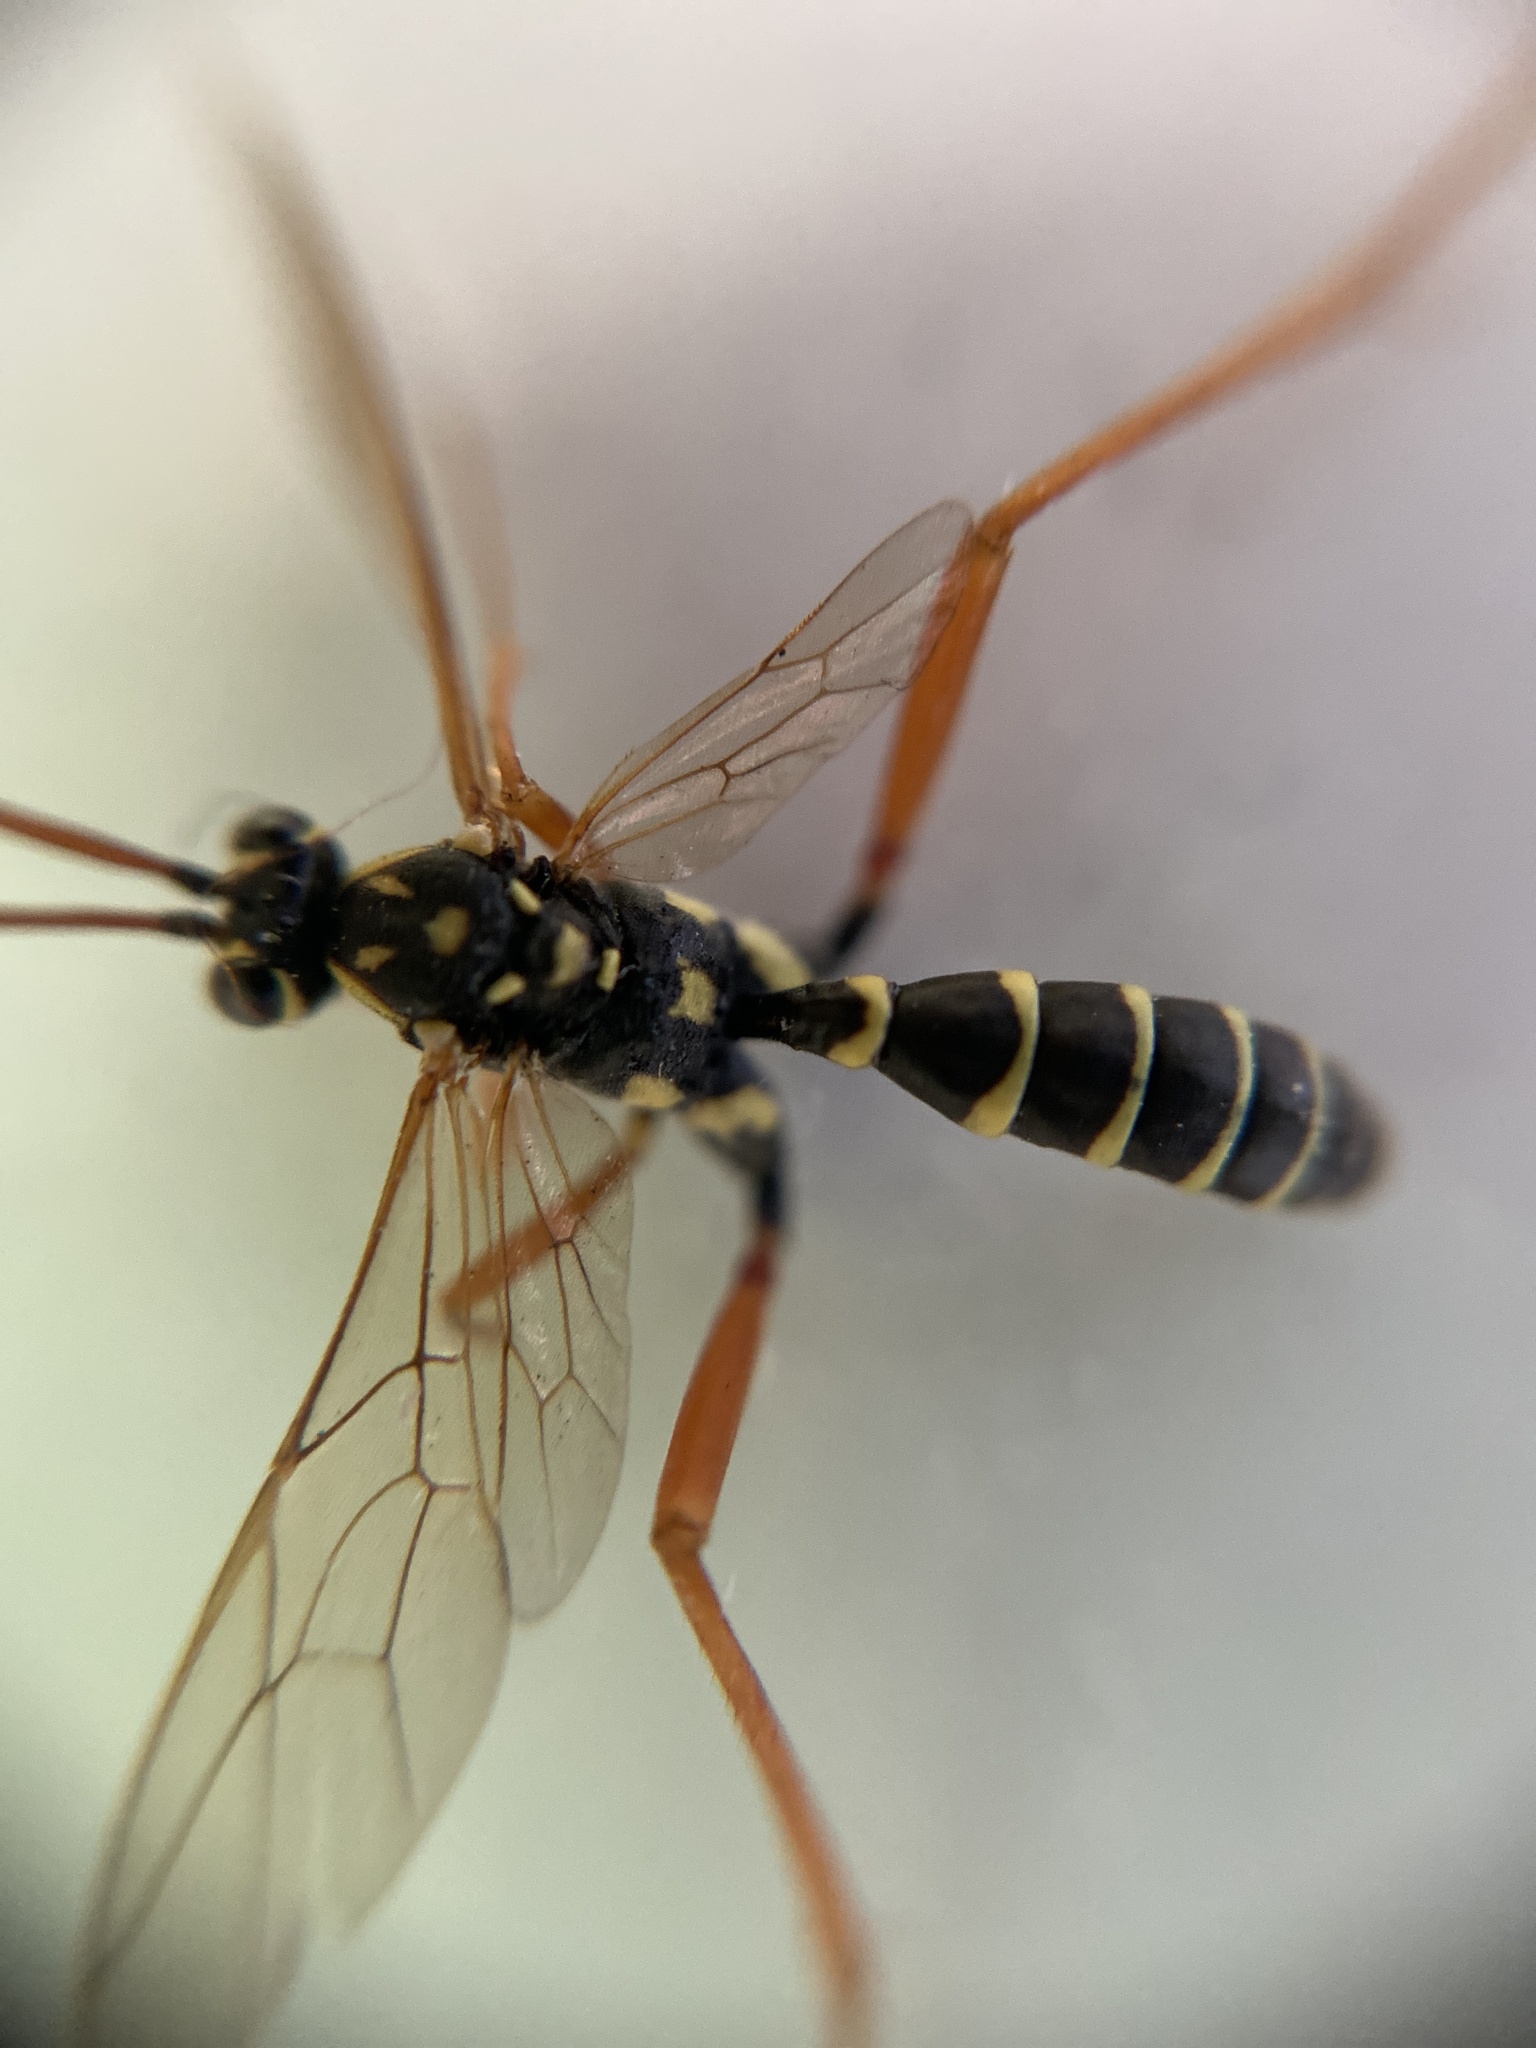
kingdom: Animalia
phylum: Arthropoda
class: Insecta
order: Hymenoptera
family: Ichneumonidae
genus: Latibulus
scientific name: Latibulus argiolus
